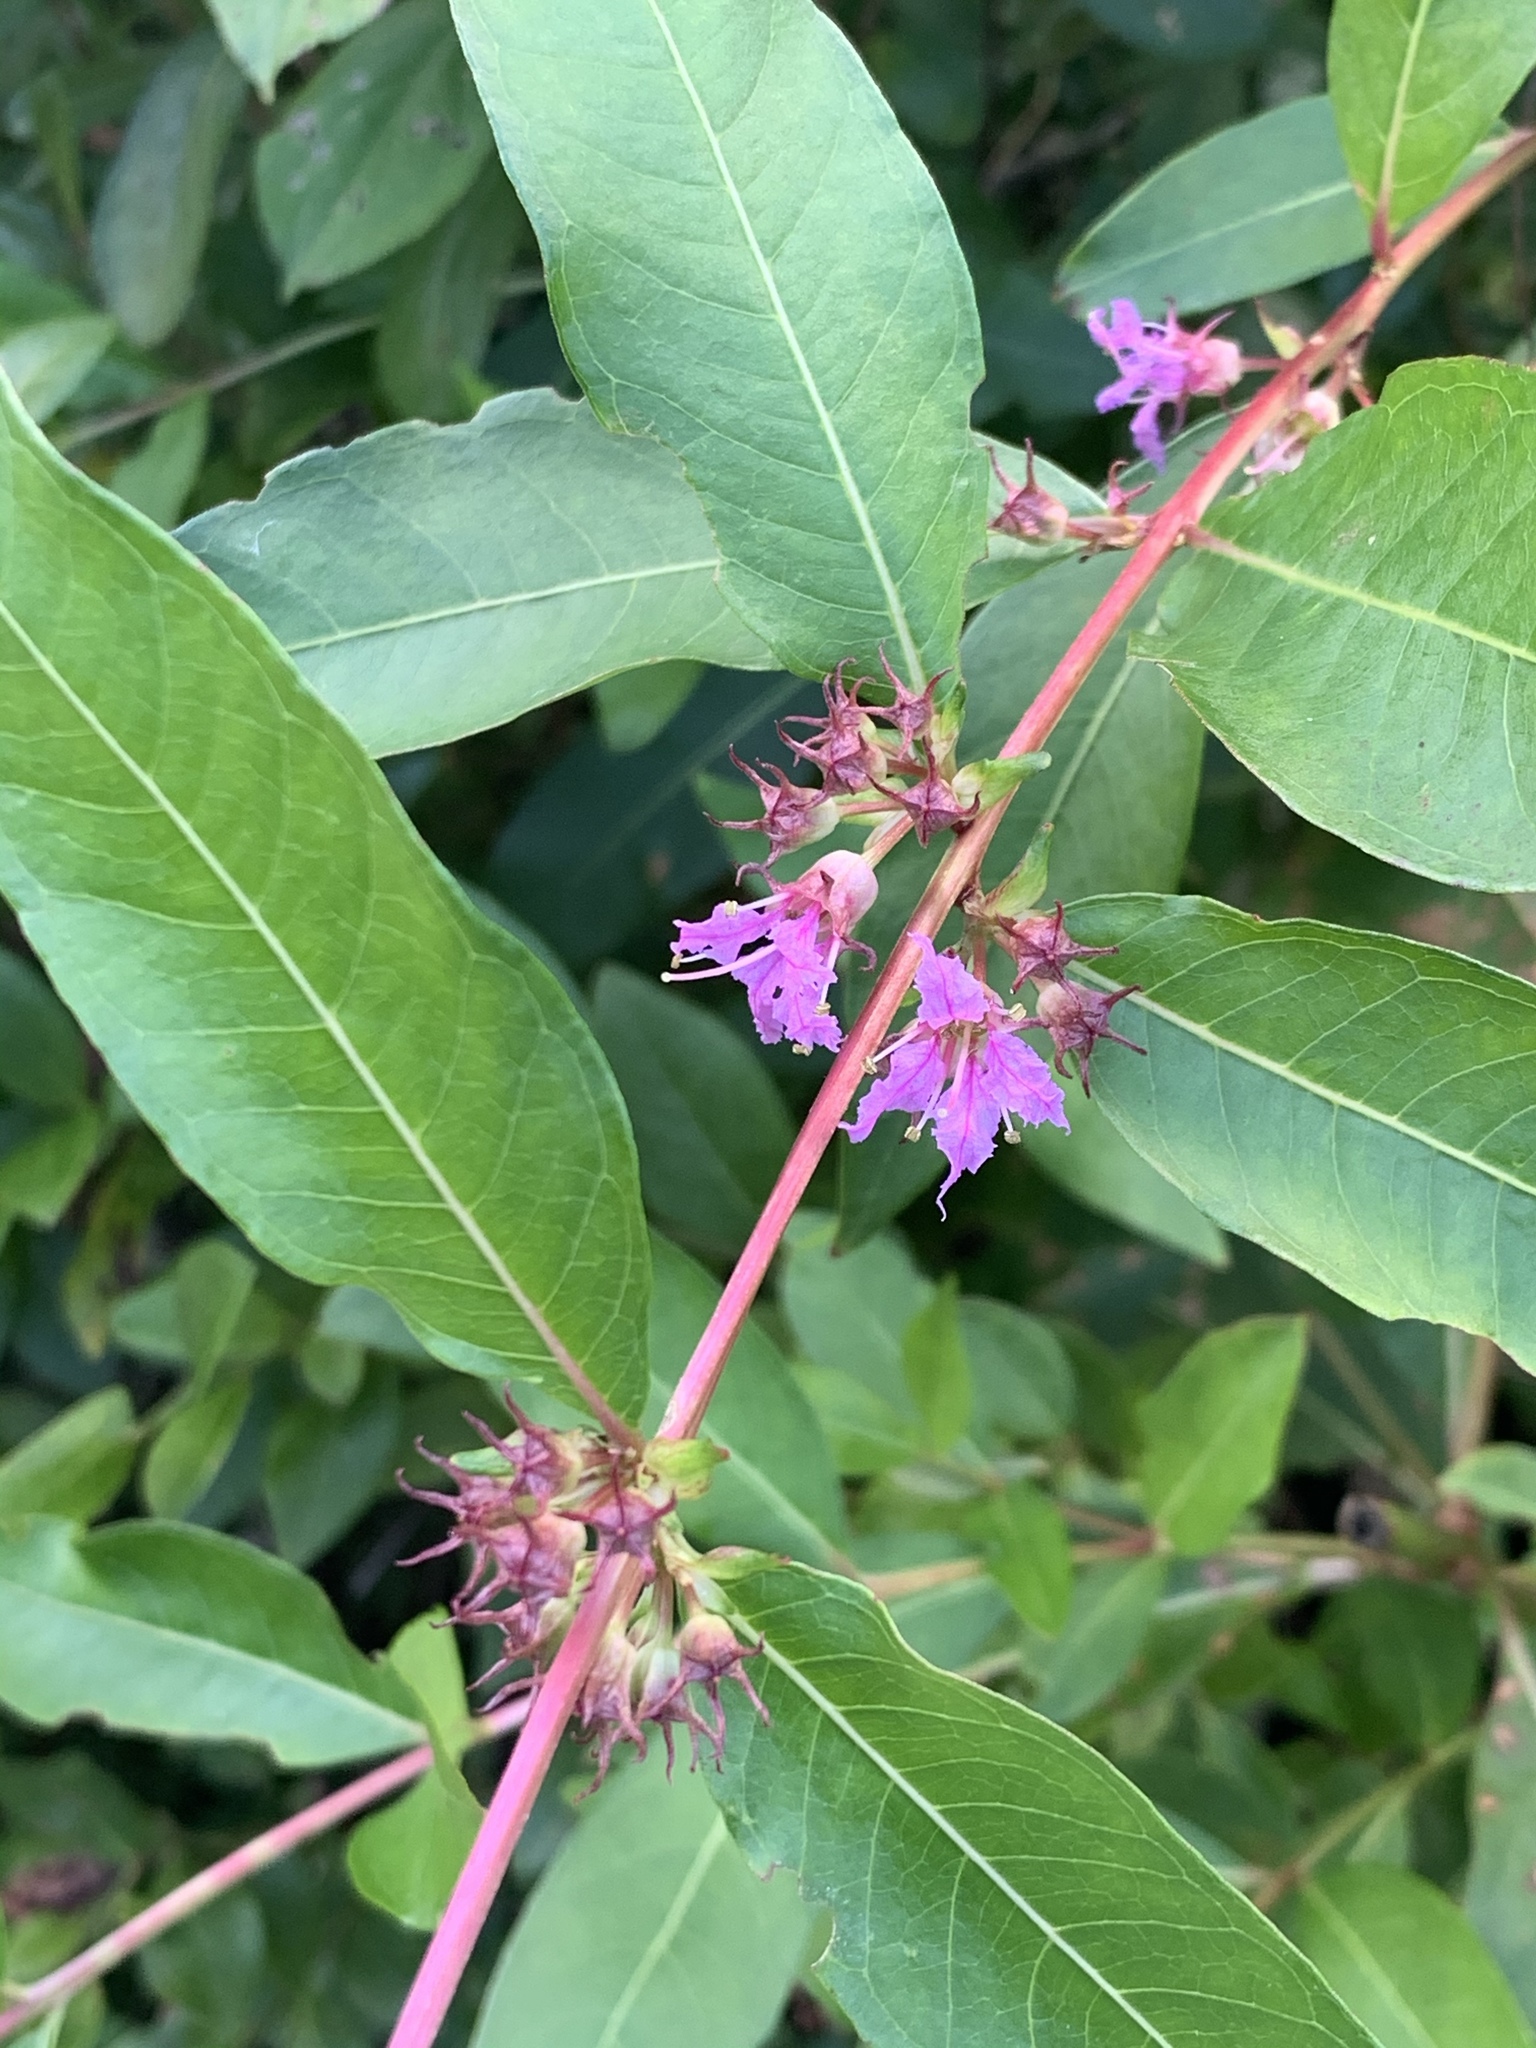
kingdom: Plantae
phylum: Tracheophyta
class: Magnoliopsida
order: Myrtales
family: Lythraceae
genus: Decodon
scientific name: Decodon verticillatus
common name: Hairy swamp loosestrife
